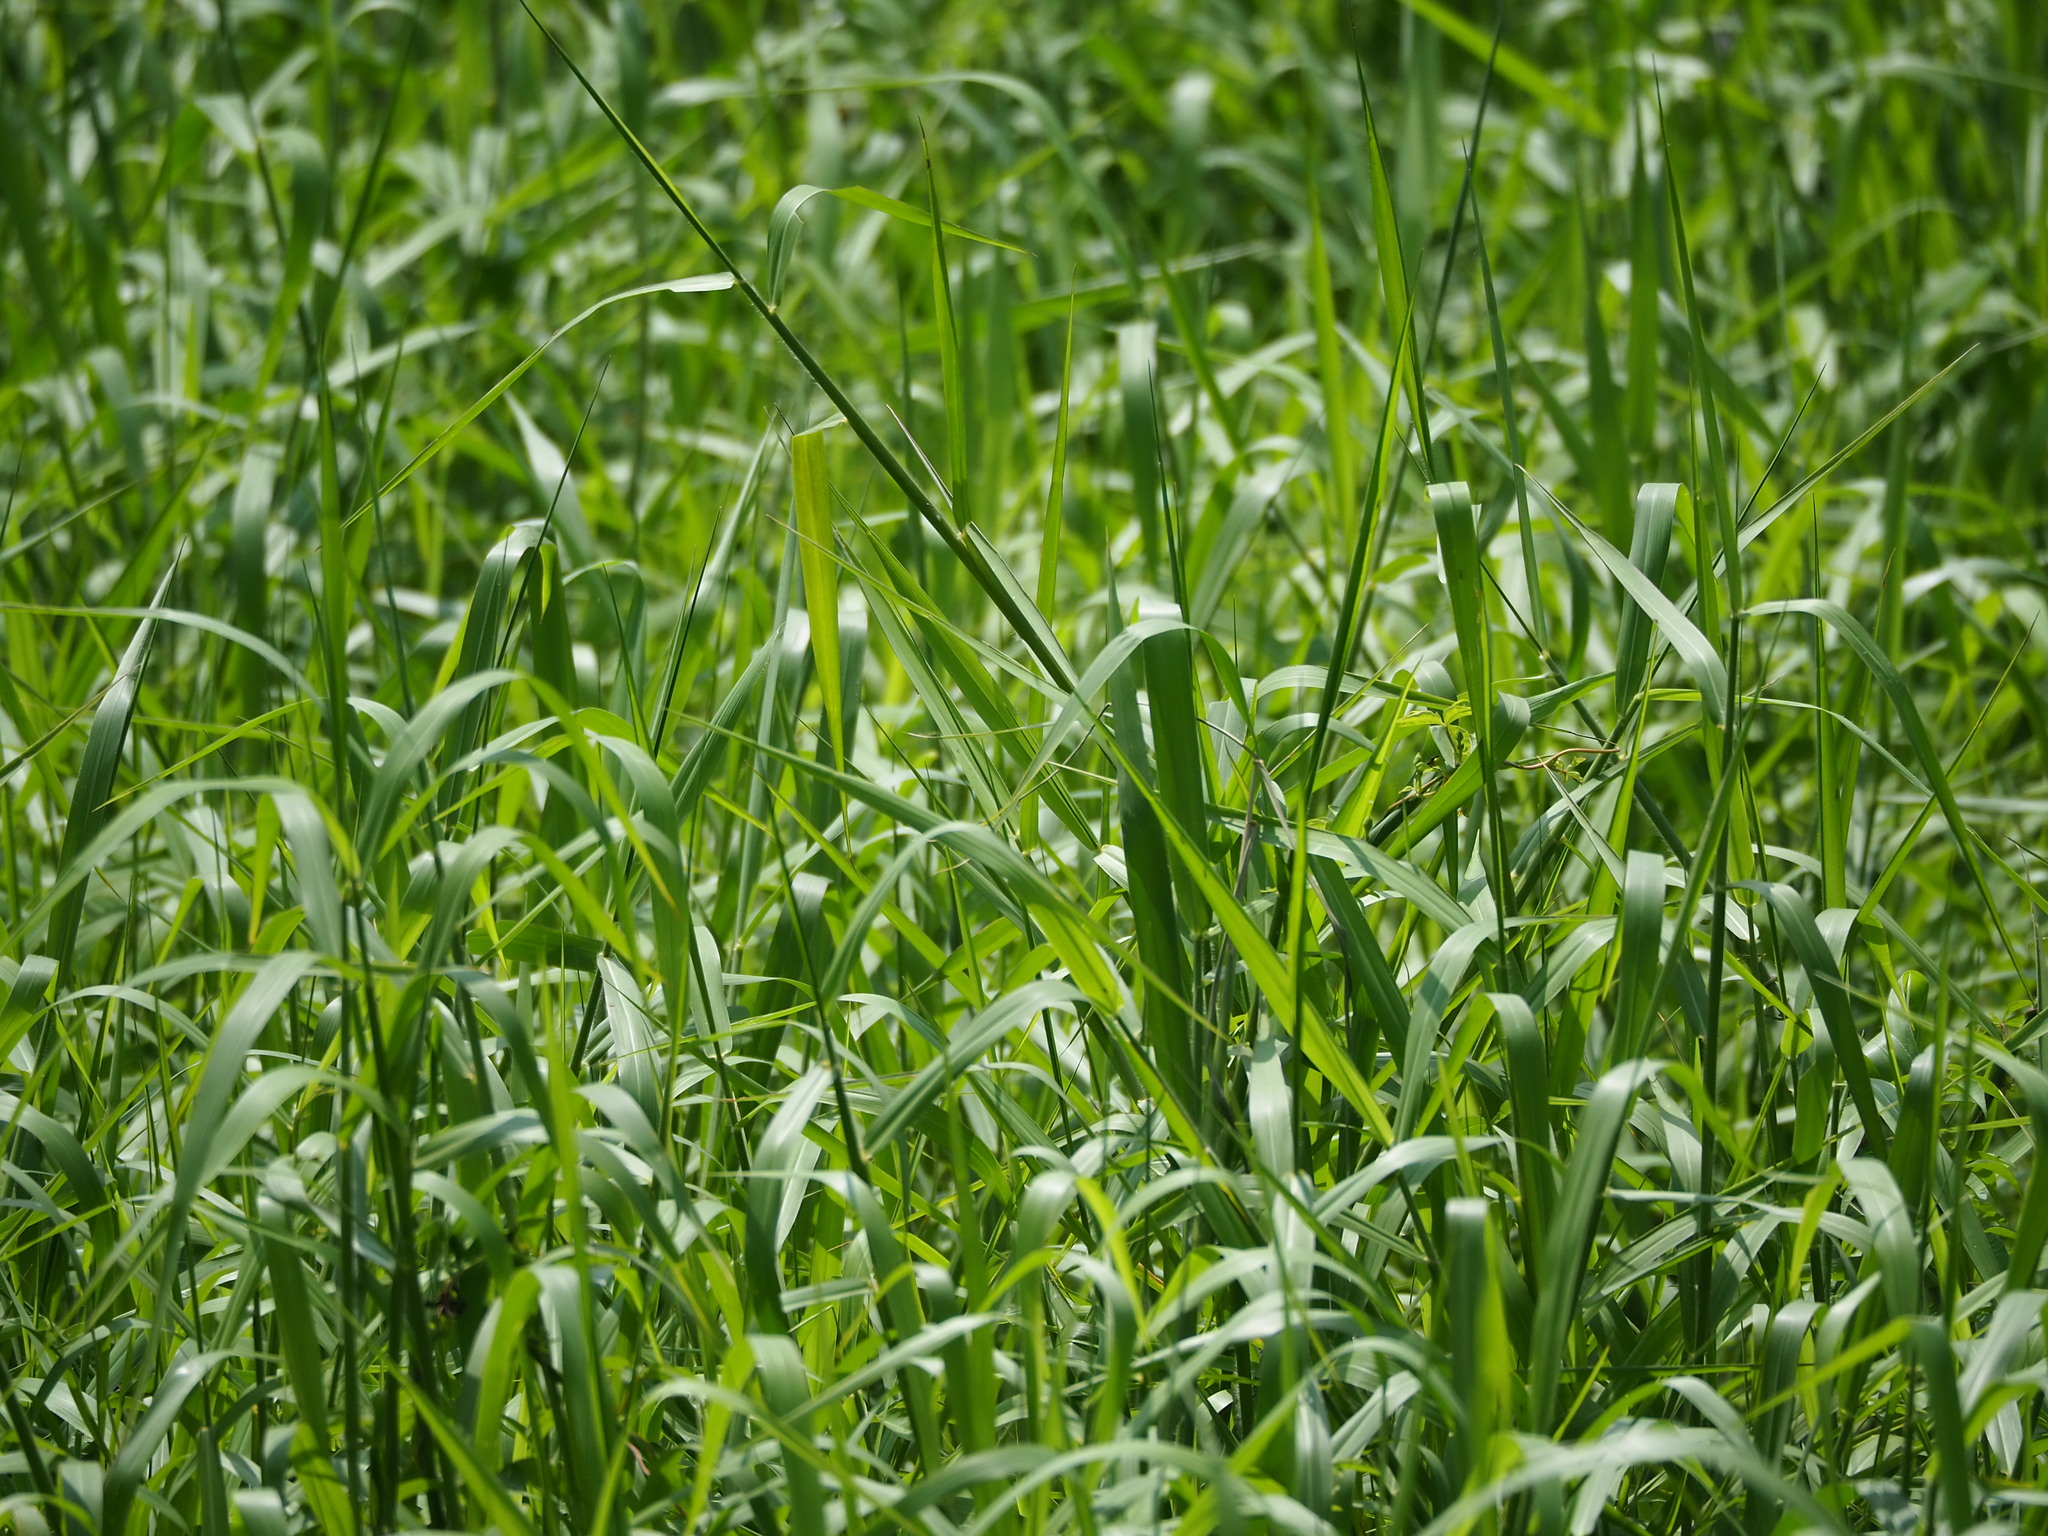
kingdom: Plantae
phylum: Tracheophyta
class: Liliopsida
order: Poales
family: Poaceae
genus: Urochloa
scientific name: Urochloa mutica
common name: Para grass
